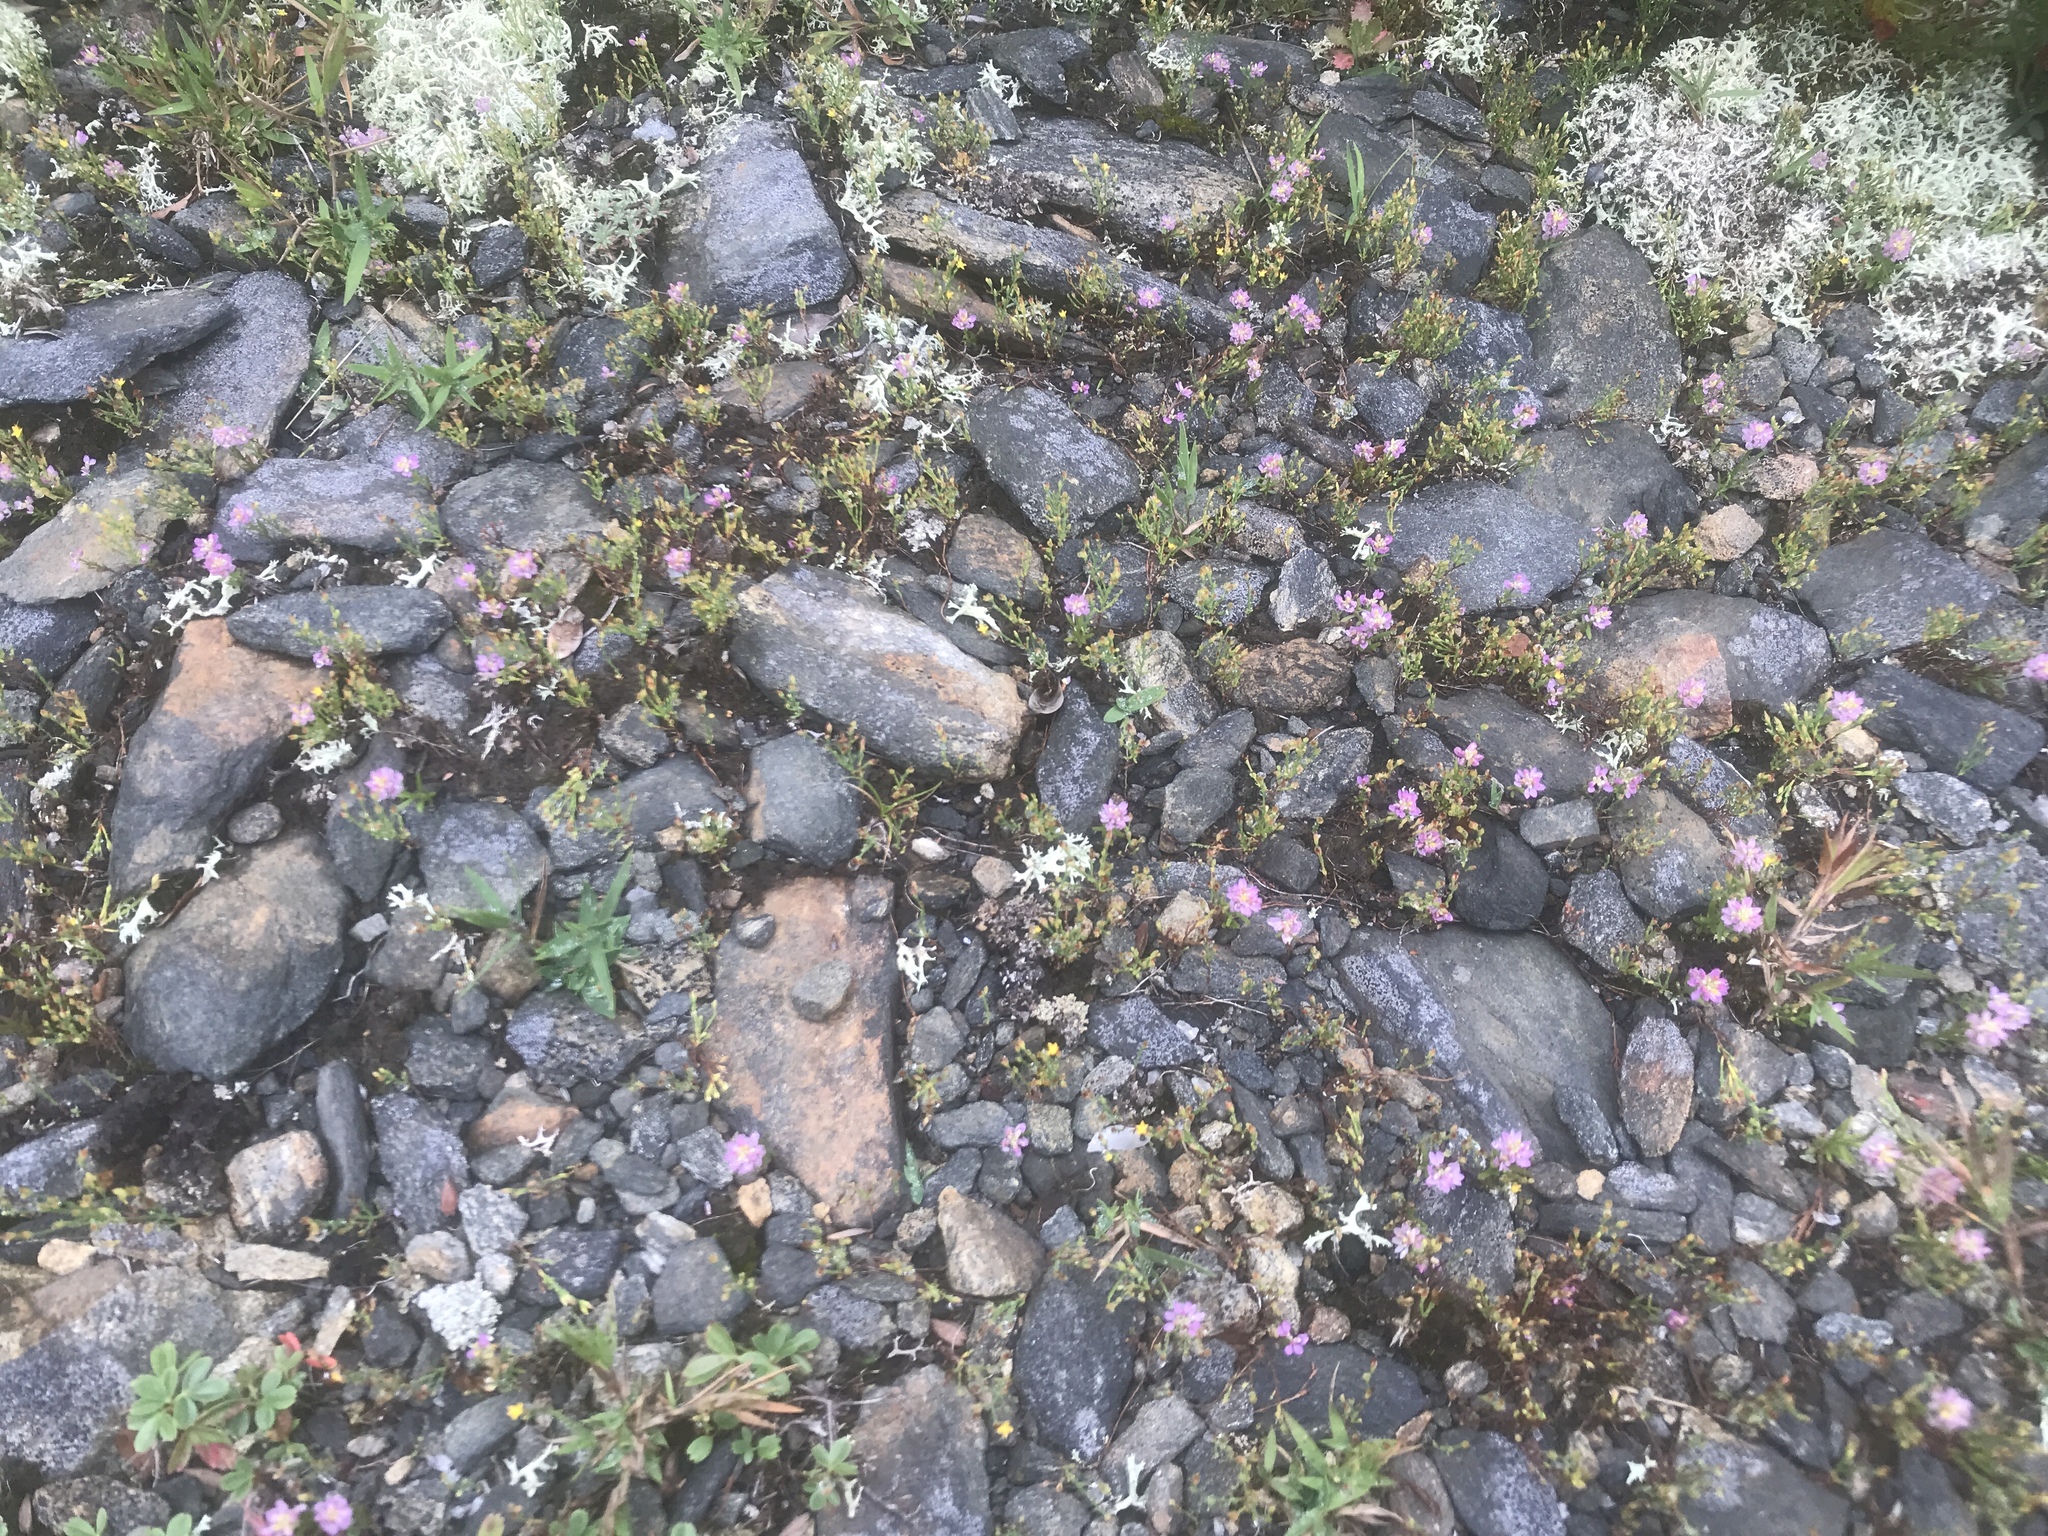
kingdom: Plantae
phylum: Tracheophyta
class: Magnoliopsida
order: Fabales
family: Polygalaceae
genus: Polygala
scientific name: Polygala curtissii
